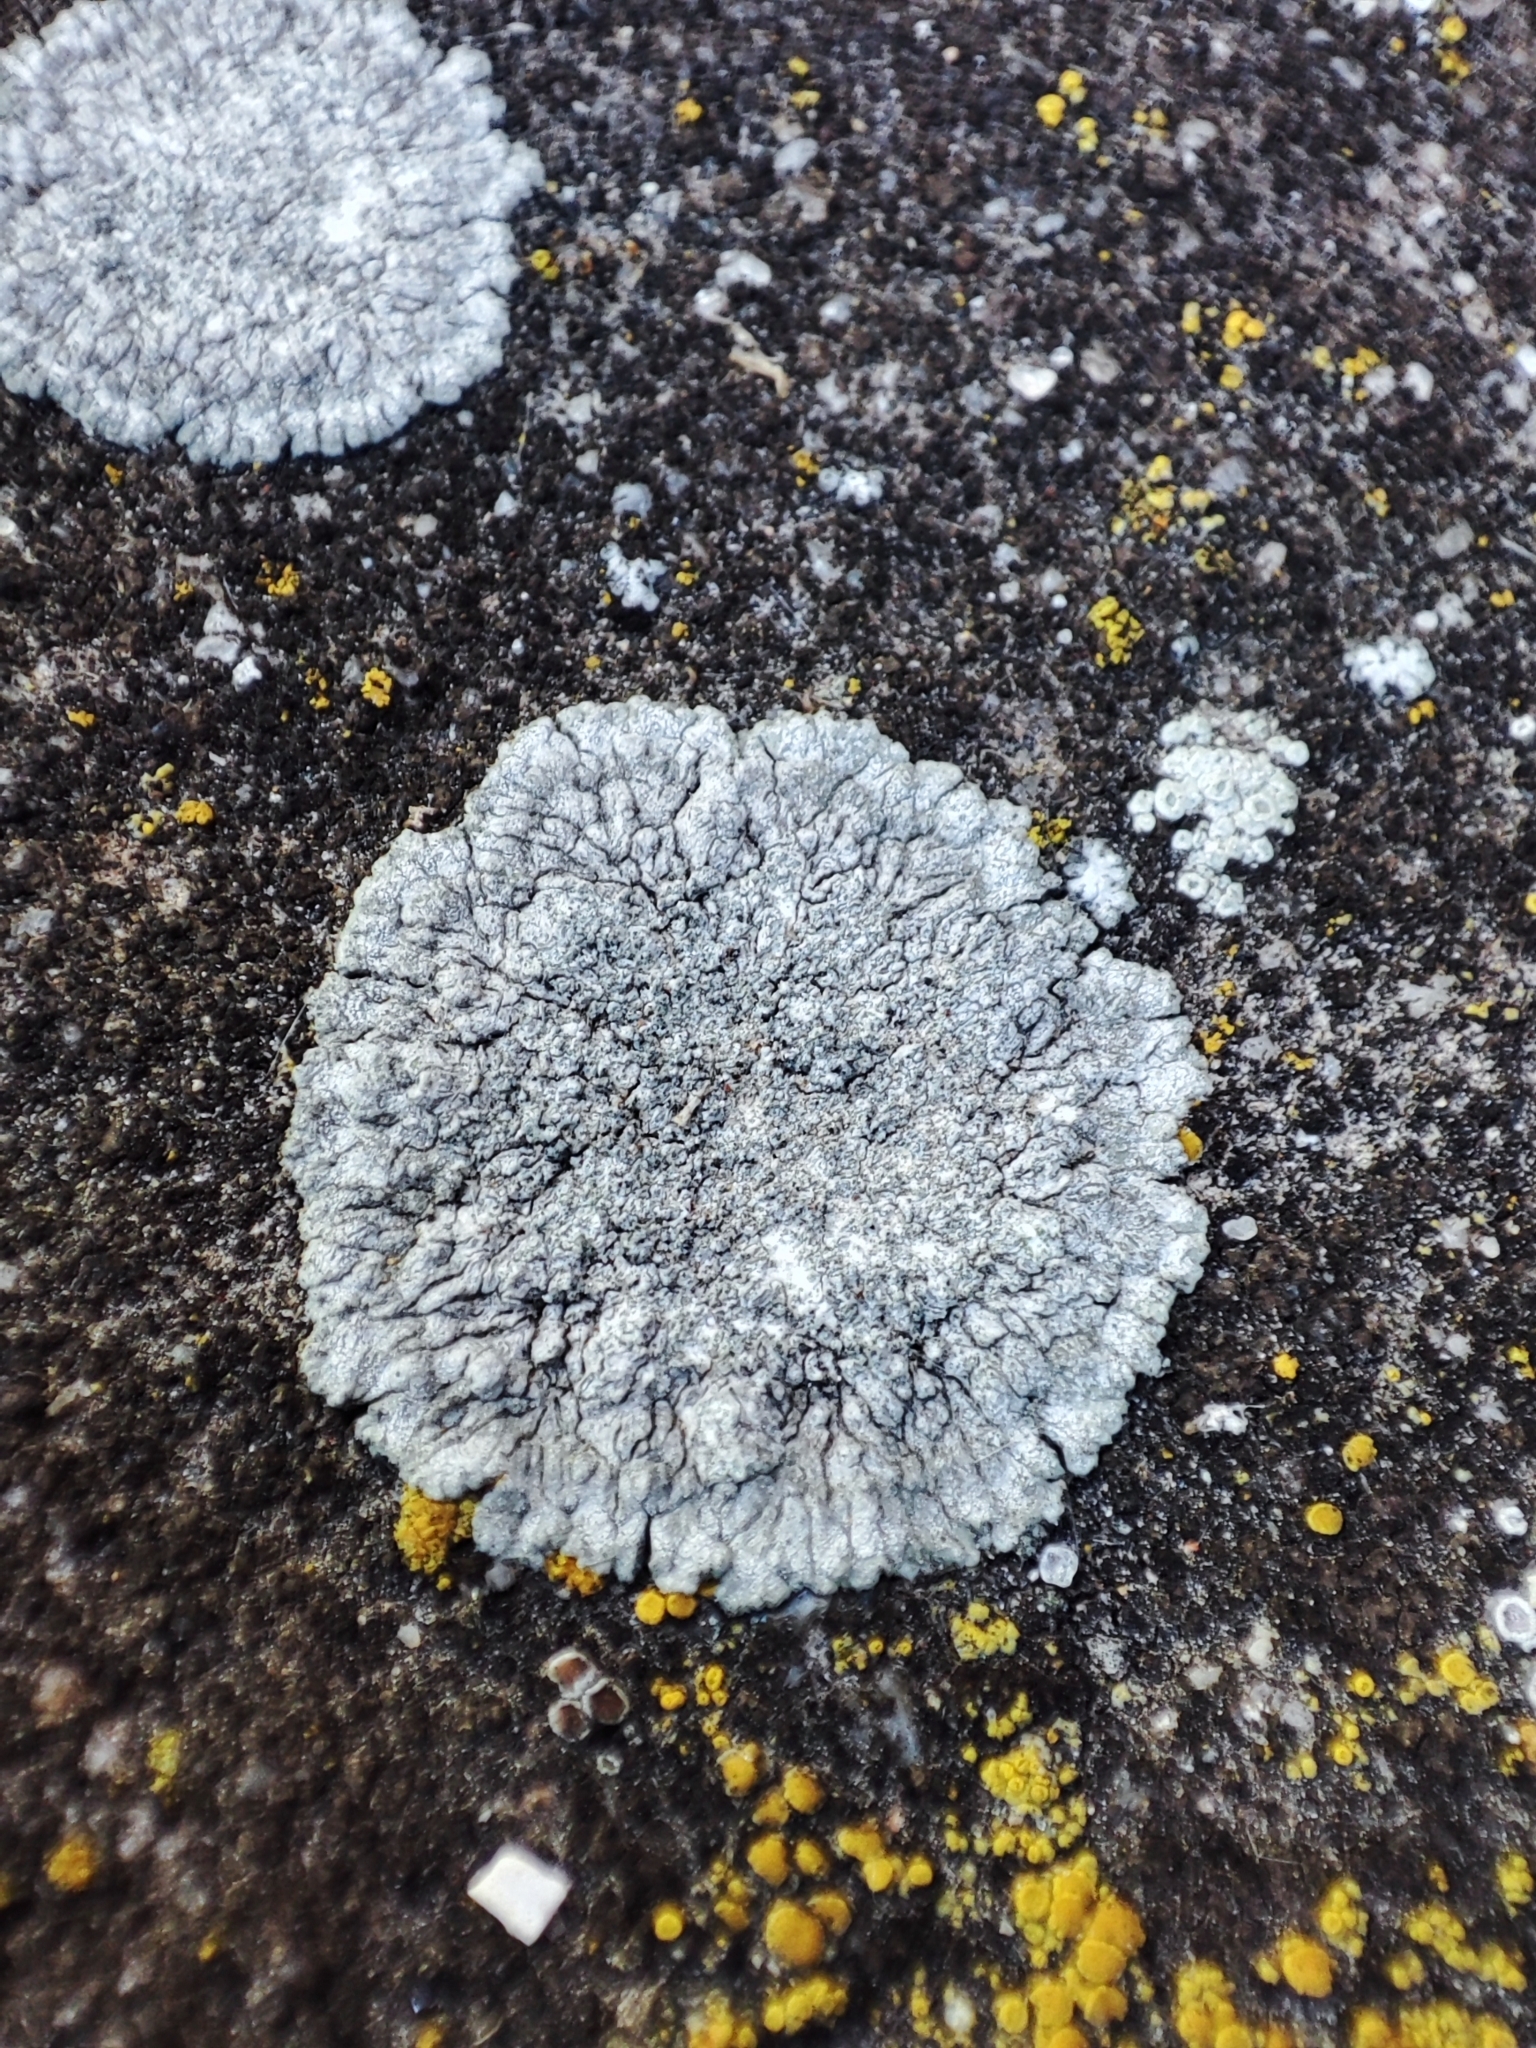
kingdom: Fungi
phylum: Ascomycota
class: Lecanoromycetes
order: Teloschistales
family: Teloschistaceae
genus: Kuettlingeria
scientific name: Kuettlingeria teicholyta
